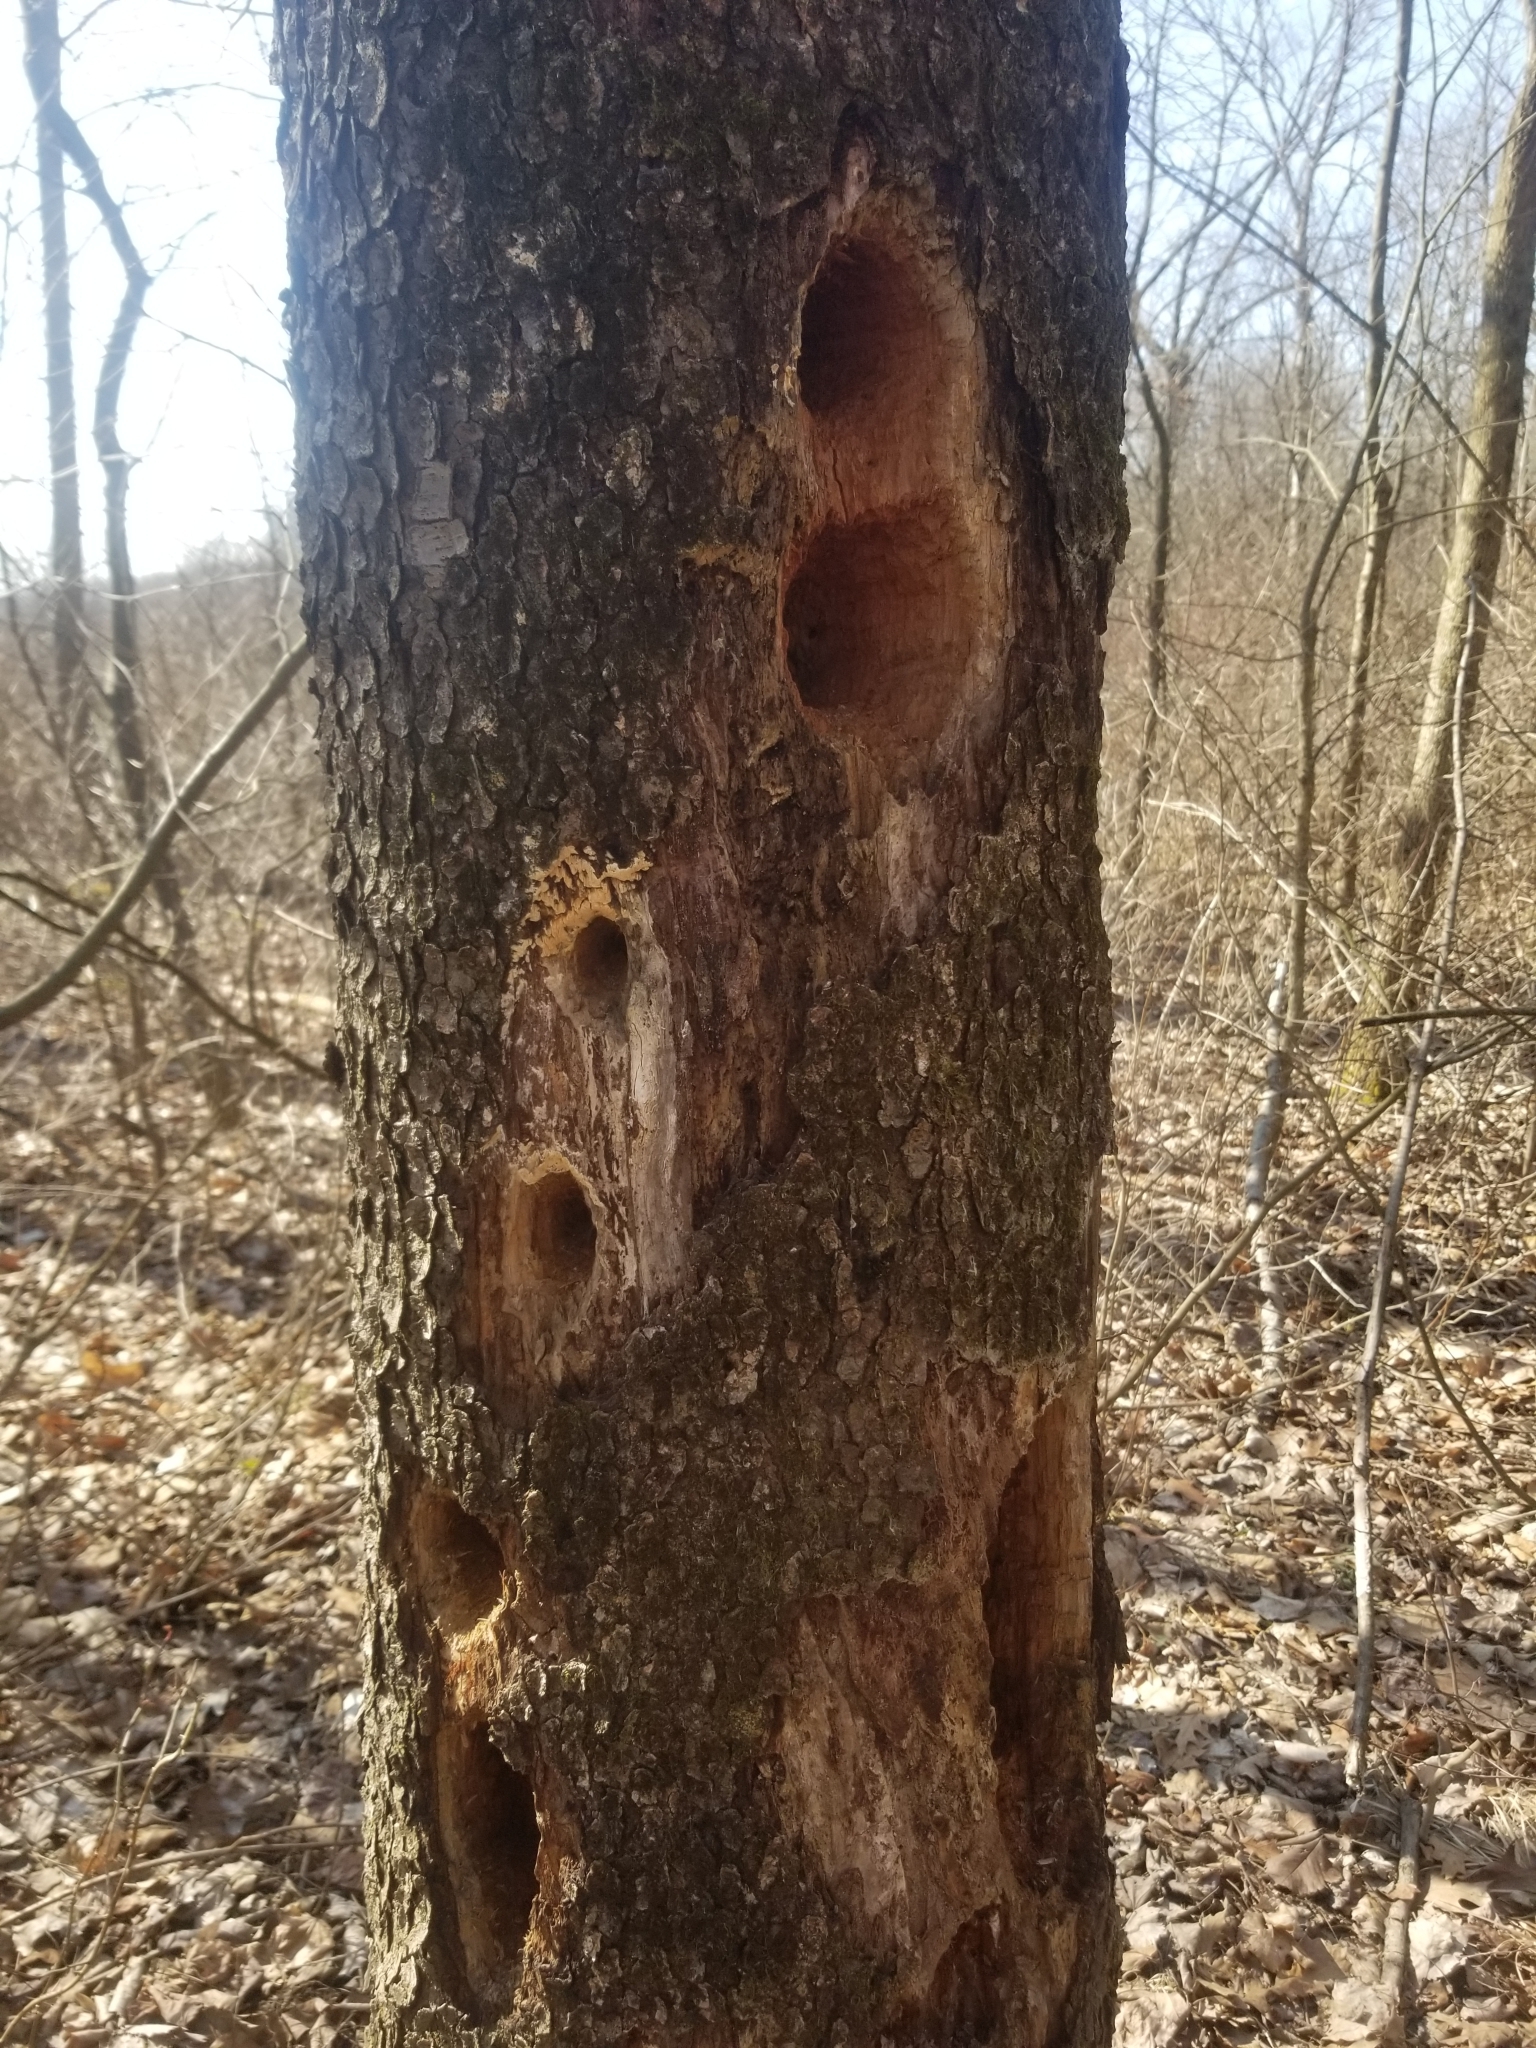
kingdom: Animalia
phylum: Chordata
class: Aves
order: Piciformes
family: Picidae
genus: Dryocopus
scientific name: Dryocopus pileatus
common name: Pileated woodpecker
